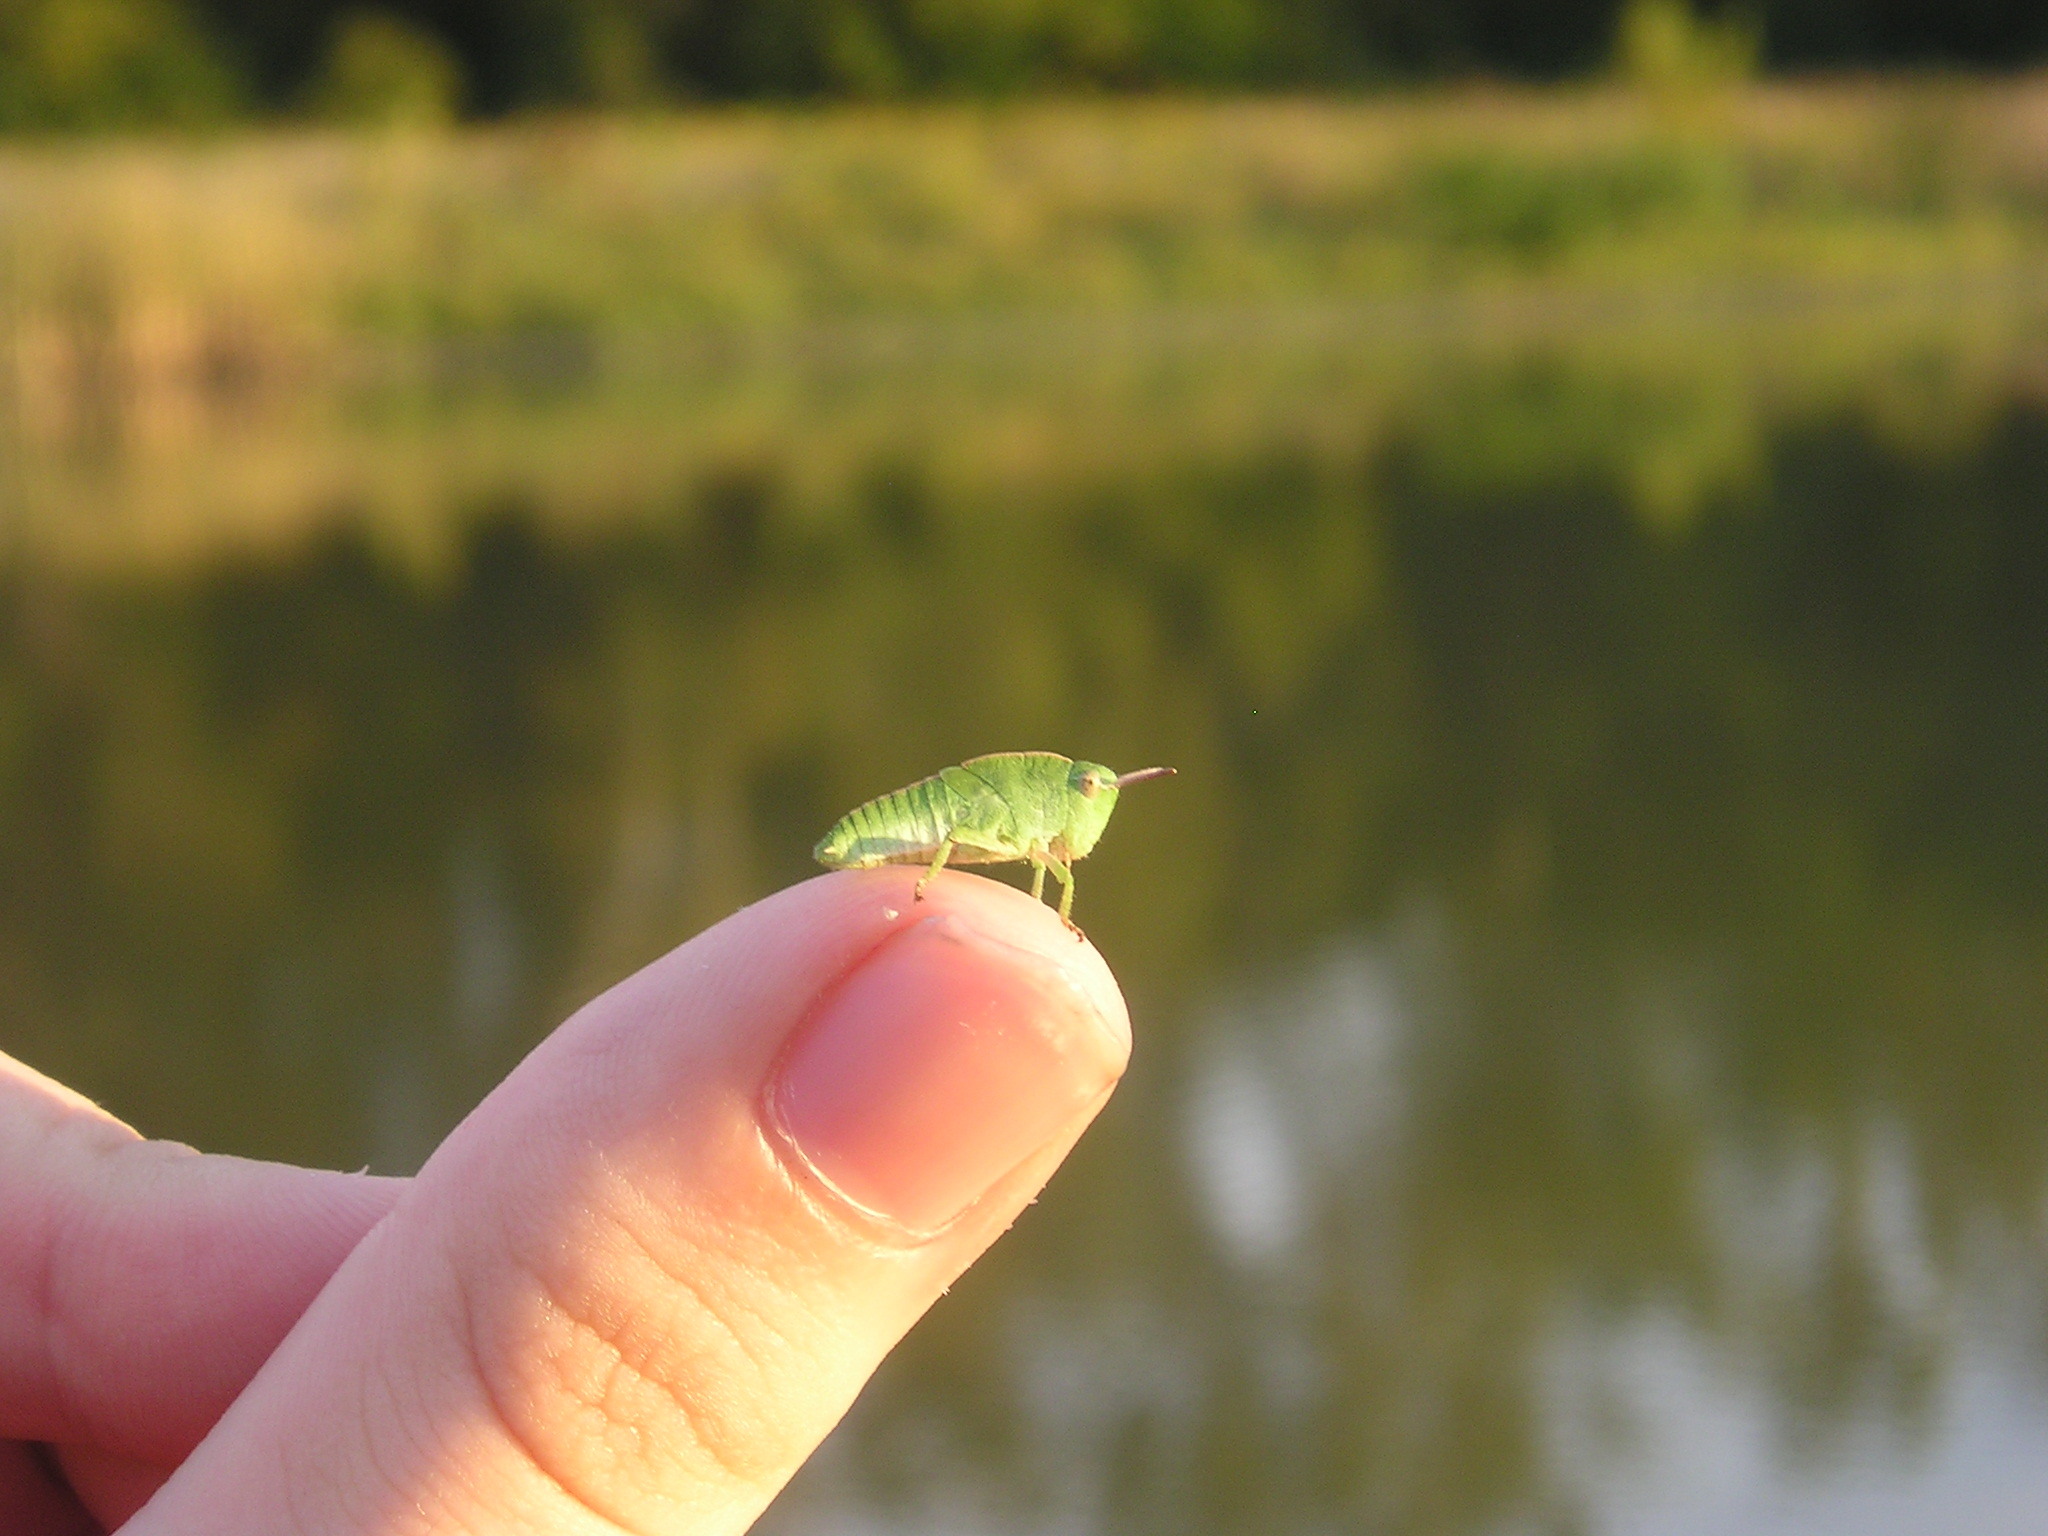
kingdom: Animalia
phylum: Arthropoda
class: Insecta
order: Orthoptera
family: Acrididae
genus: Chortophaga
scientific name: Chortophaga viridifasciata
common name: Green-striped grasshopper
